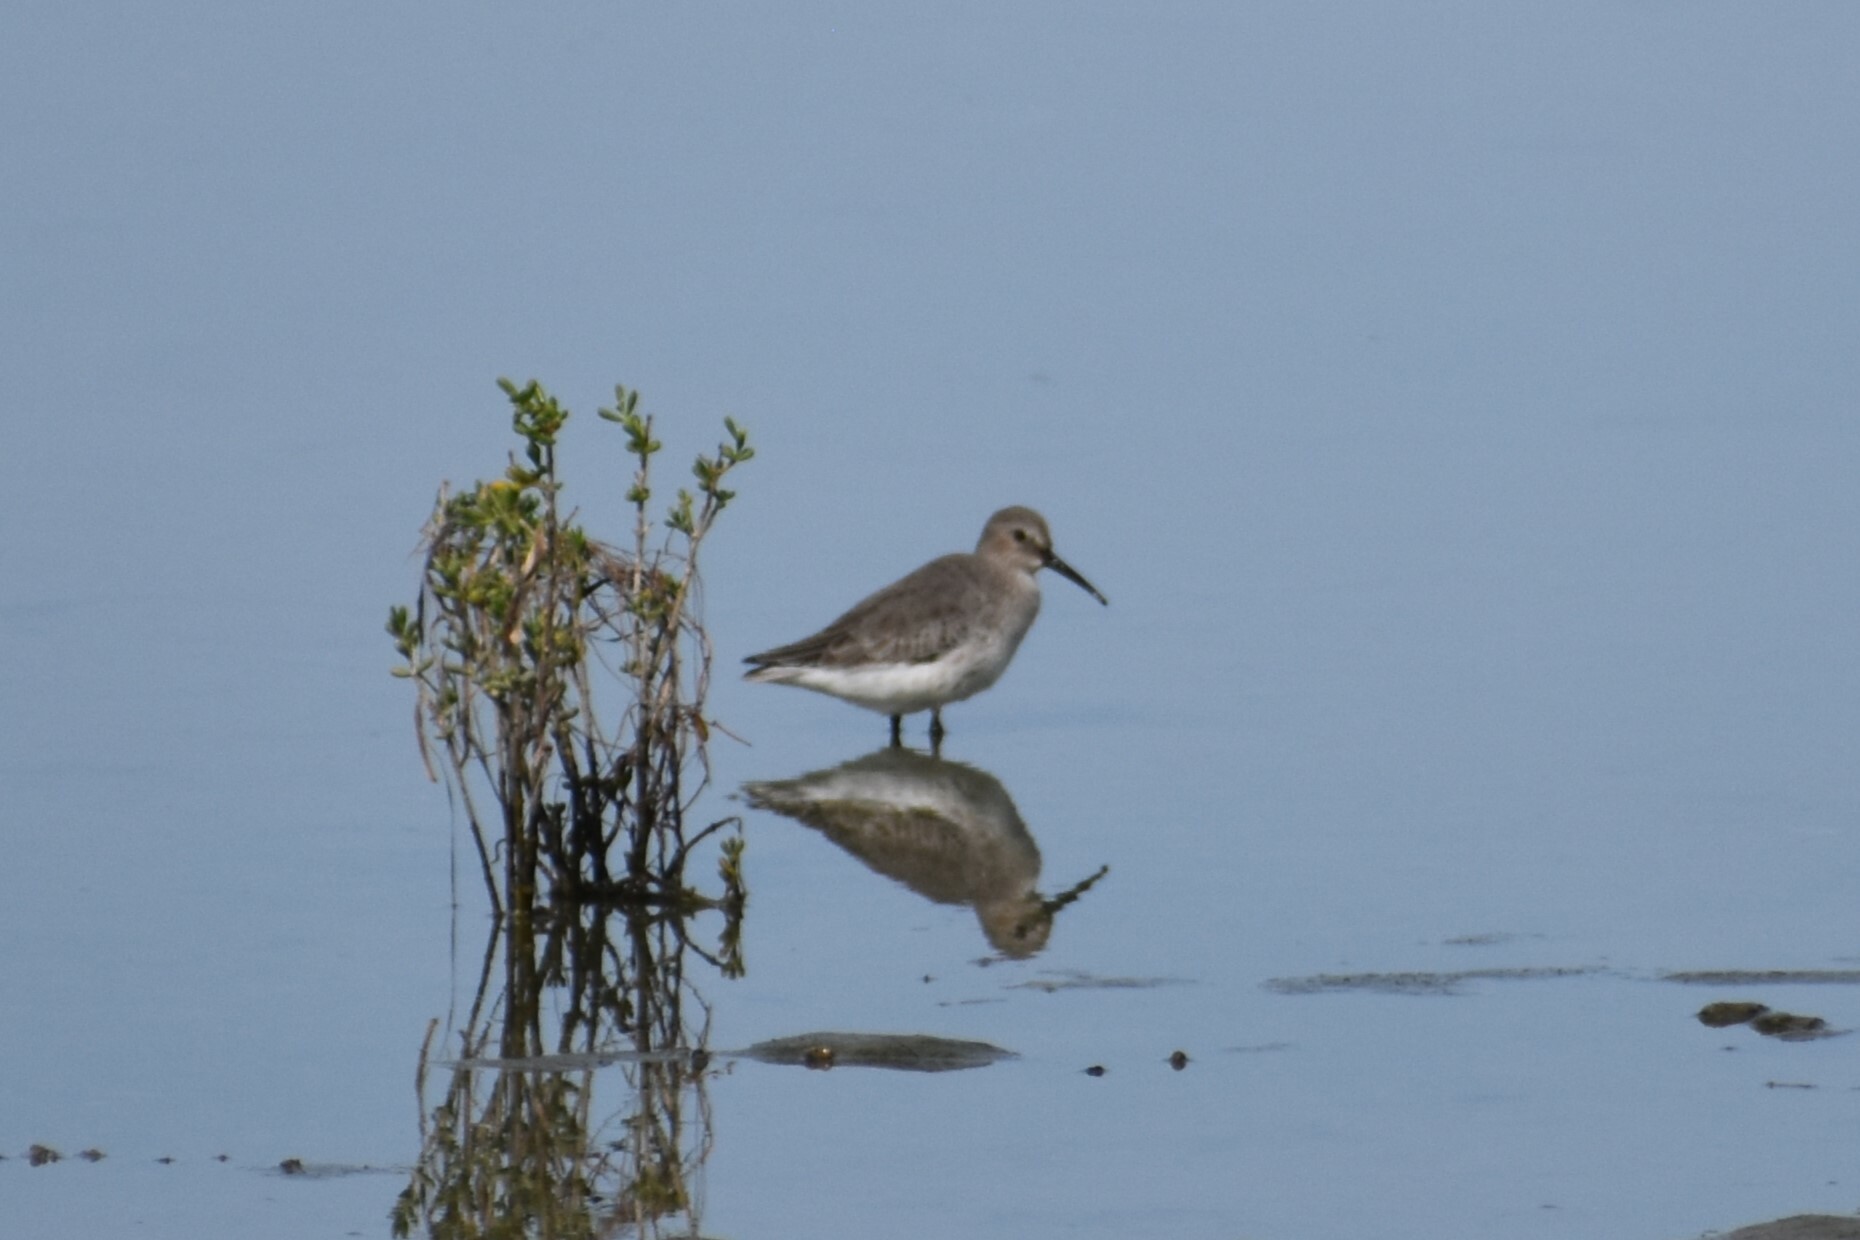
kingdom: Animalia
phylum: Chordata
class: Aves
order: Charadriiformes
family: Scolopacidae
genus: Calidris
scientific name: Calidris alpina
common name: Dunlin
